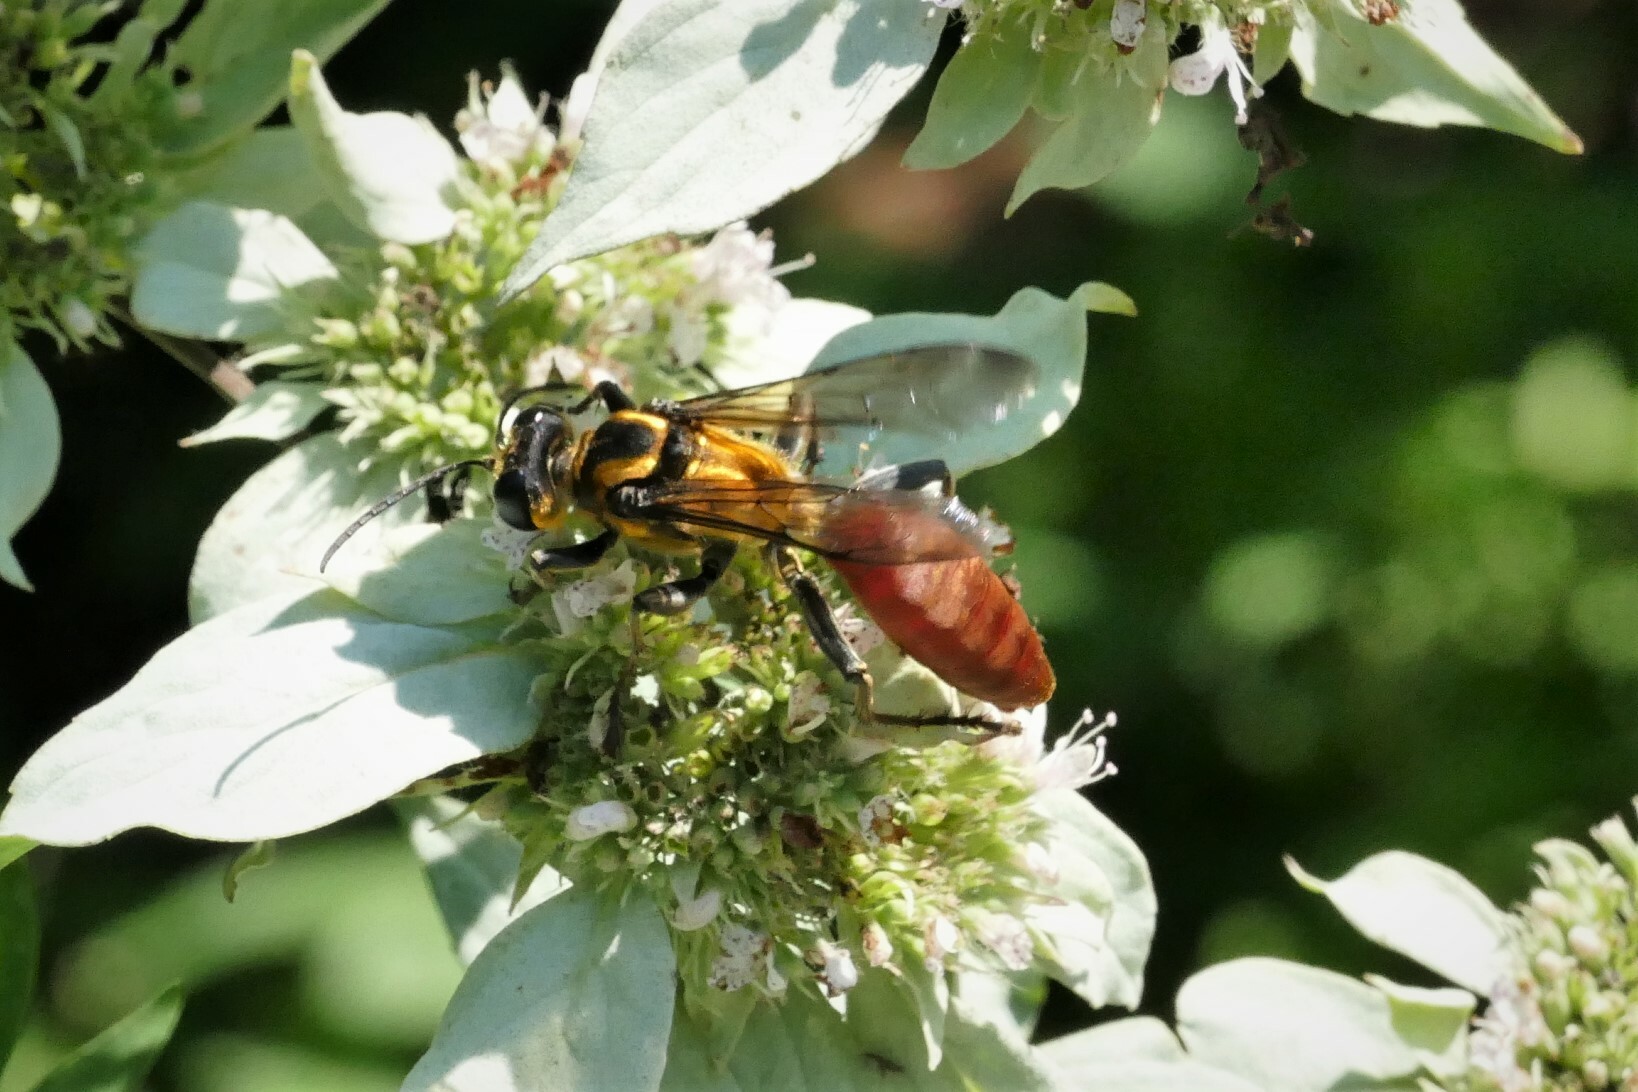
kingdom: Animalia
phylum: Arthropoda
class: Insecta
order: Hymenoptera
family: Sphecidae
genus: Sphex
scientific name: Sphex habenus
